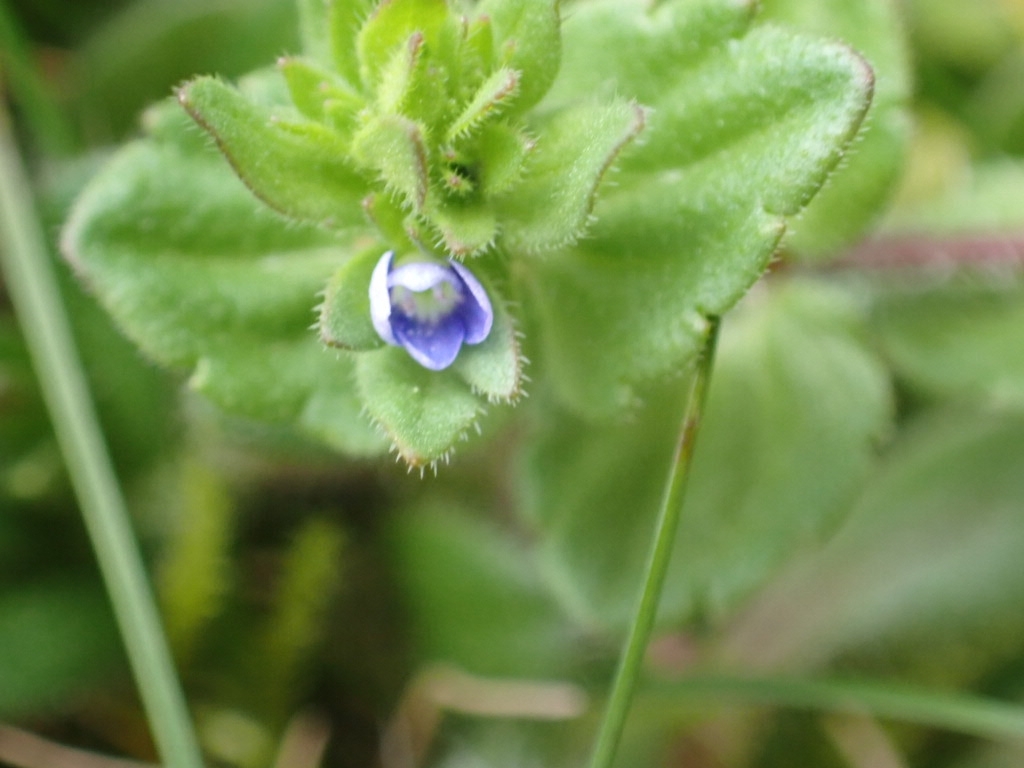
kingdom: Plantae
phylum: Tracheophyta
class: Magnoliopsida
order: Lamiales
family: Plantaginaceae
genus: Veronica
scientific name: Veronica arvensis
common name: Corn speedwell
